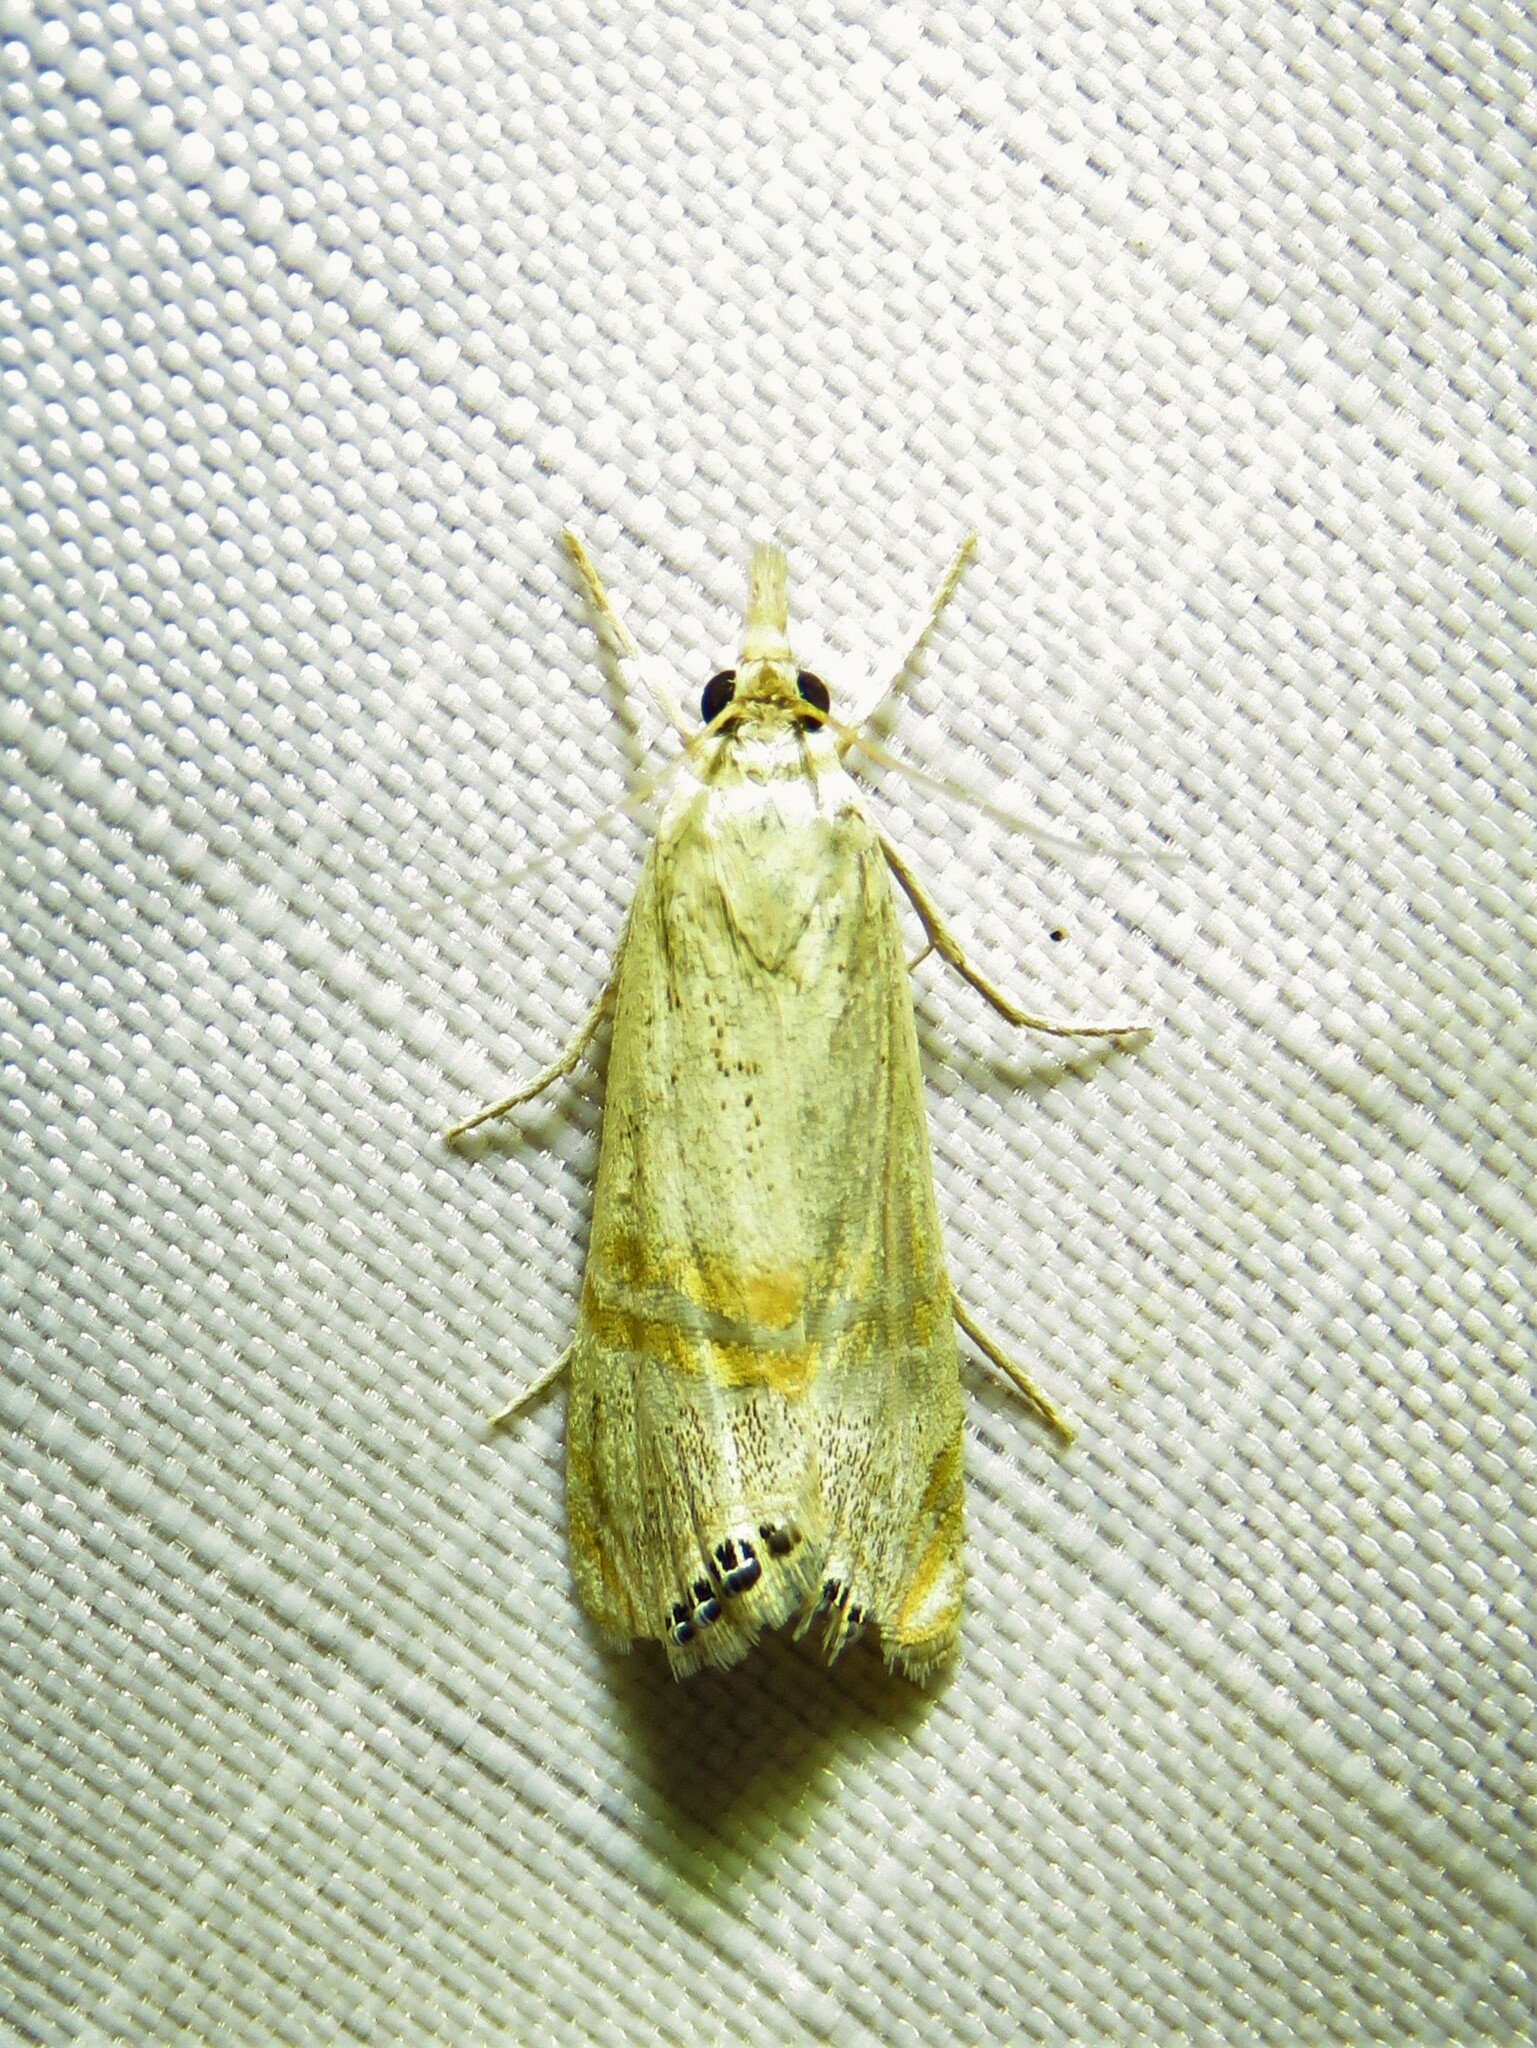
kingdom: Animalia
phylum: Arthropoda
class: Insecta
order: Lepidoptera
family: Crambidae
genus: Euchromius
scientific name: Euchromius ocellea
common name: Necklace veneer moth
